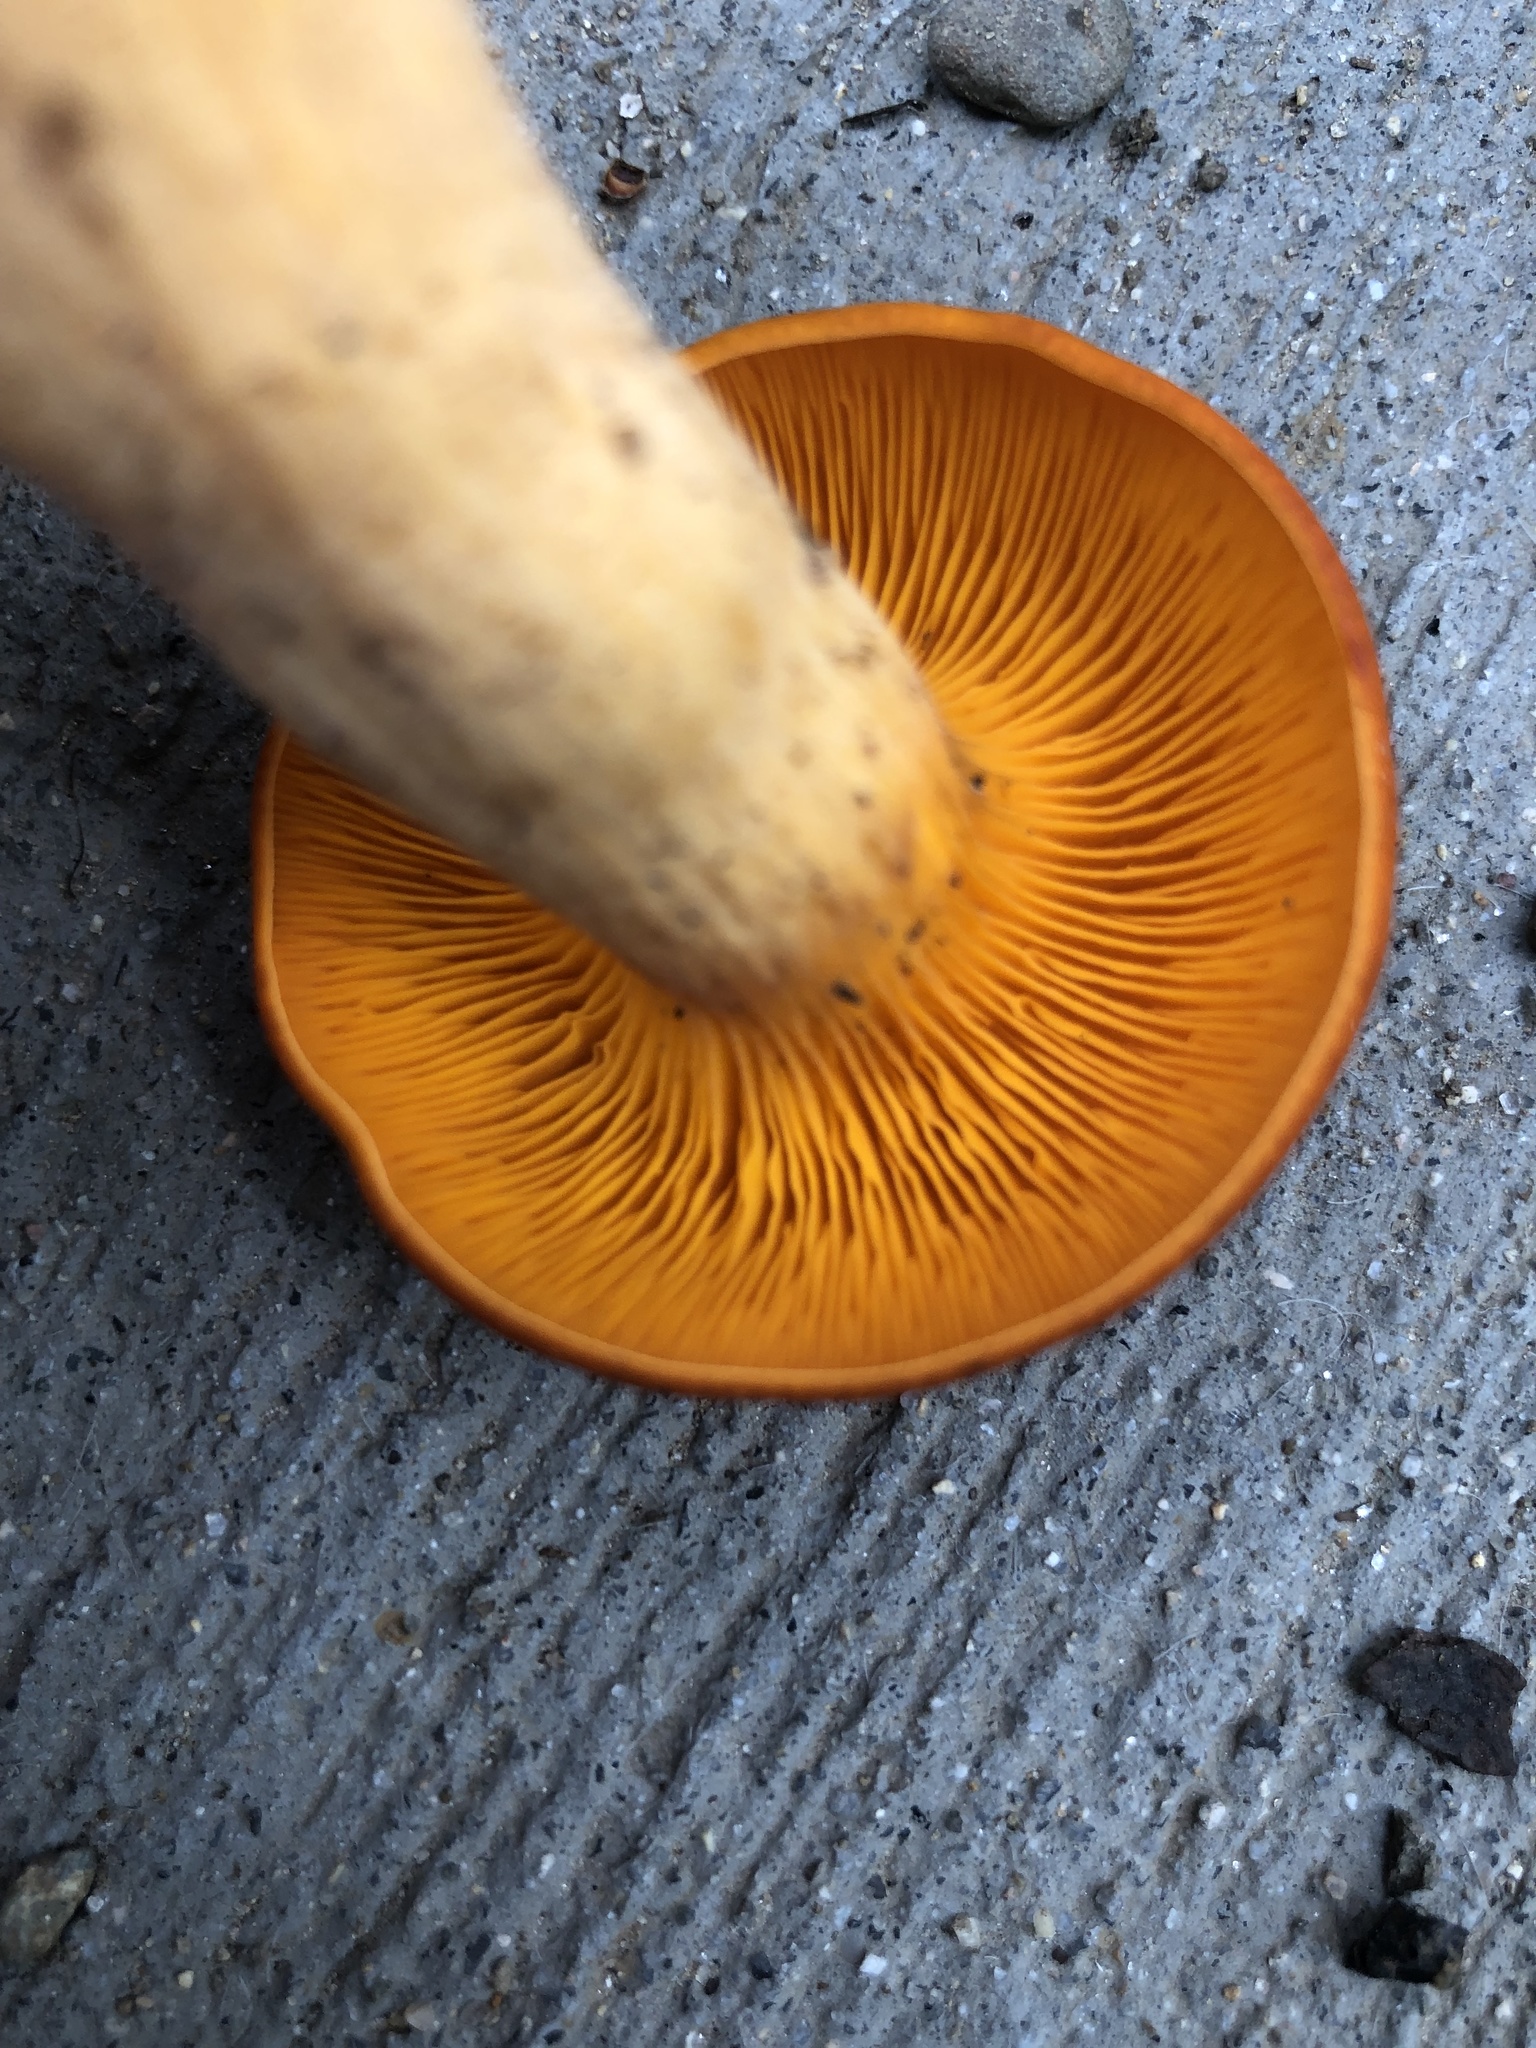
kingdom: Fungi
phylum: Basidiomycota
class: Agaricomycetes
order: Agaricales
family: Omphalotaceae
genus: Omphalotus
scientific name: Omphalotus illudens
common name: Jack o lantern
